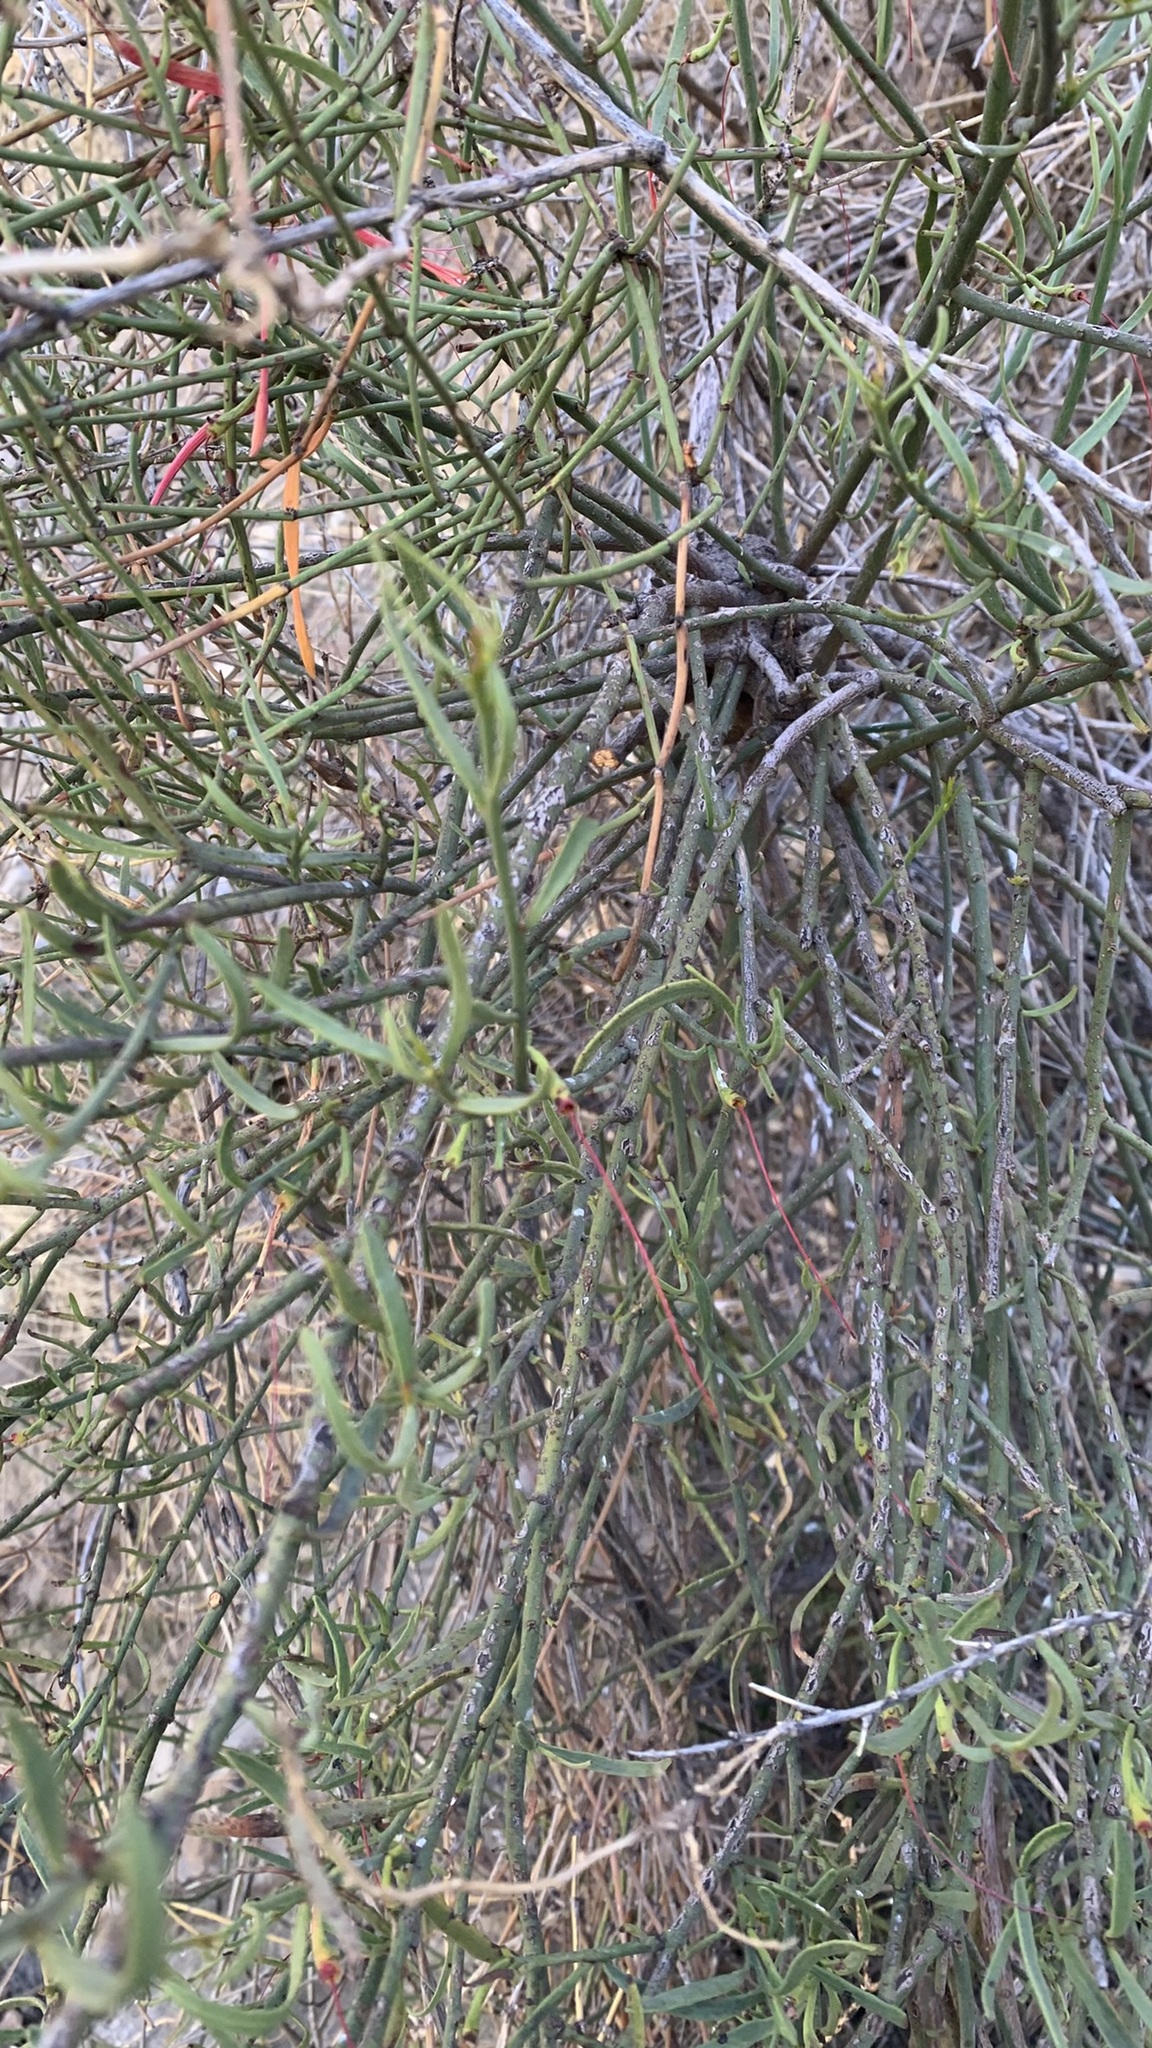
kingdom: Plantae
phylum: Tracheophyta
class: Magnoliopsida
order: Santalales
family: Loranthaceae
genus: Ligaria
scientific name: Ligaria cuneifolia
